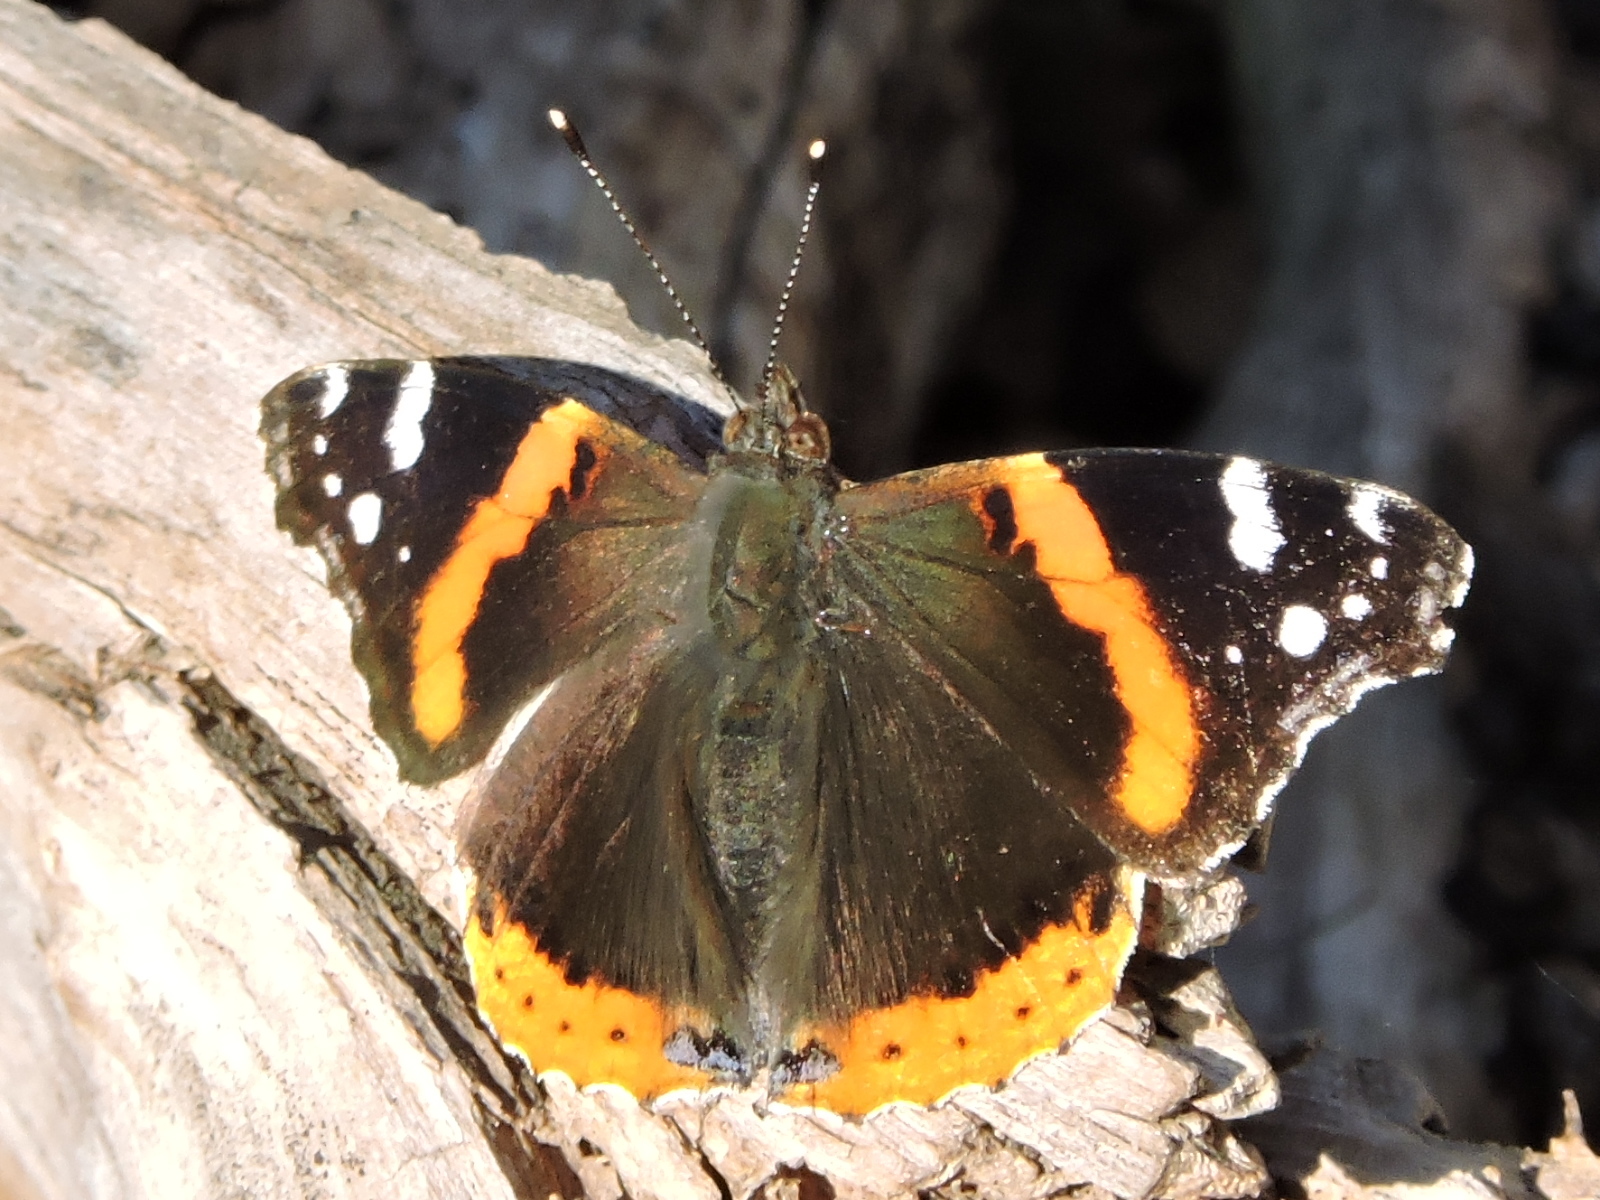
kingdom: Animalia
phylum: Arthropoda
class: Insecta
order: Lepidoptera
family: Nymphalidae
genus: Vanessa
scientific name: Vanessa atalanta
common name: Red admiral
